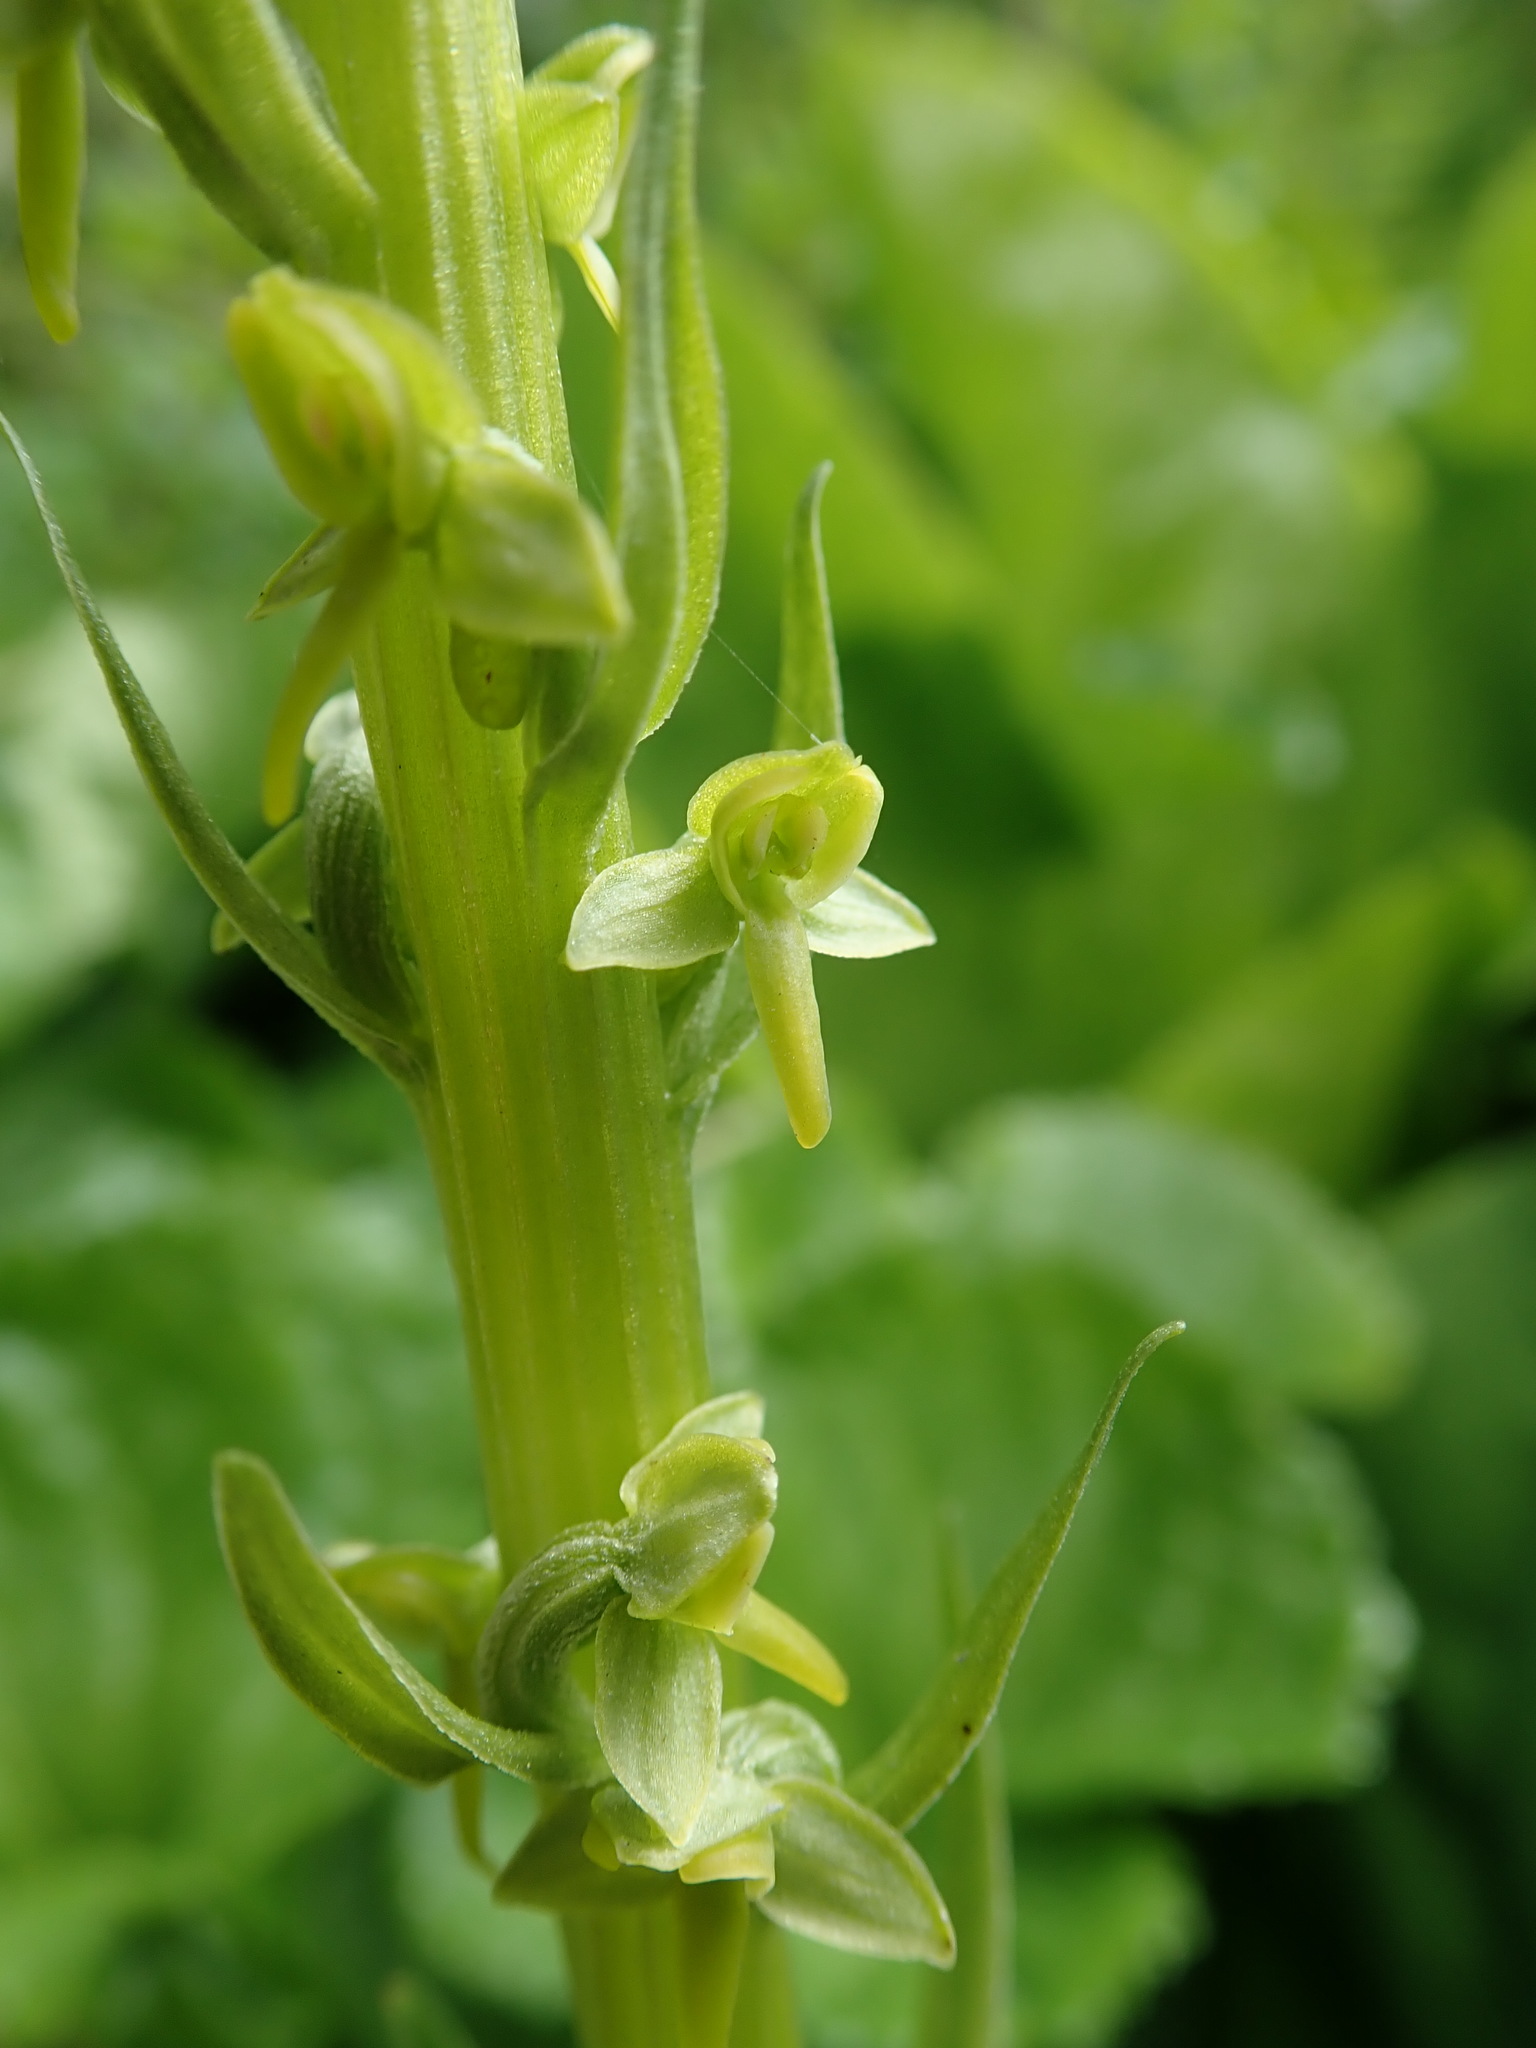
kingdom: Plantae
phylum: Tracheophyta
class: Liliopsida
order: Asparagales
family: Orchidaceae
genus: Platanthera
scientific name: Platanthera stricta
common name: Slender bog orchid
